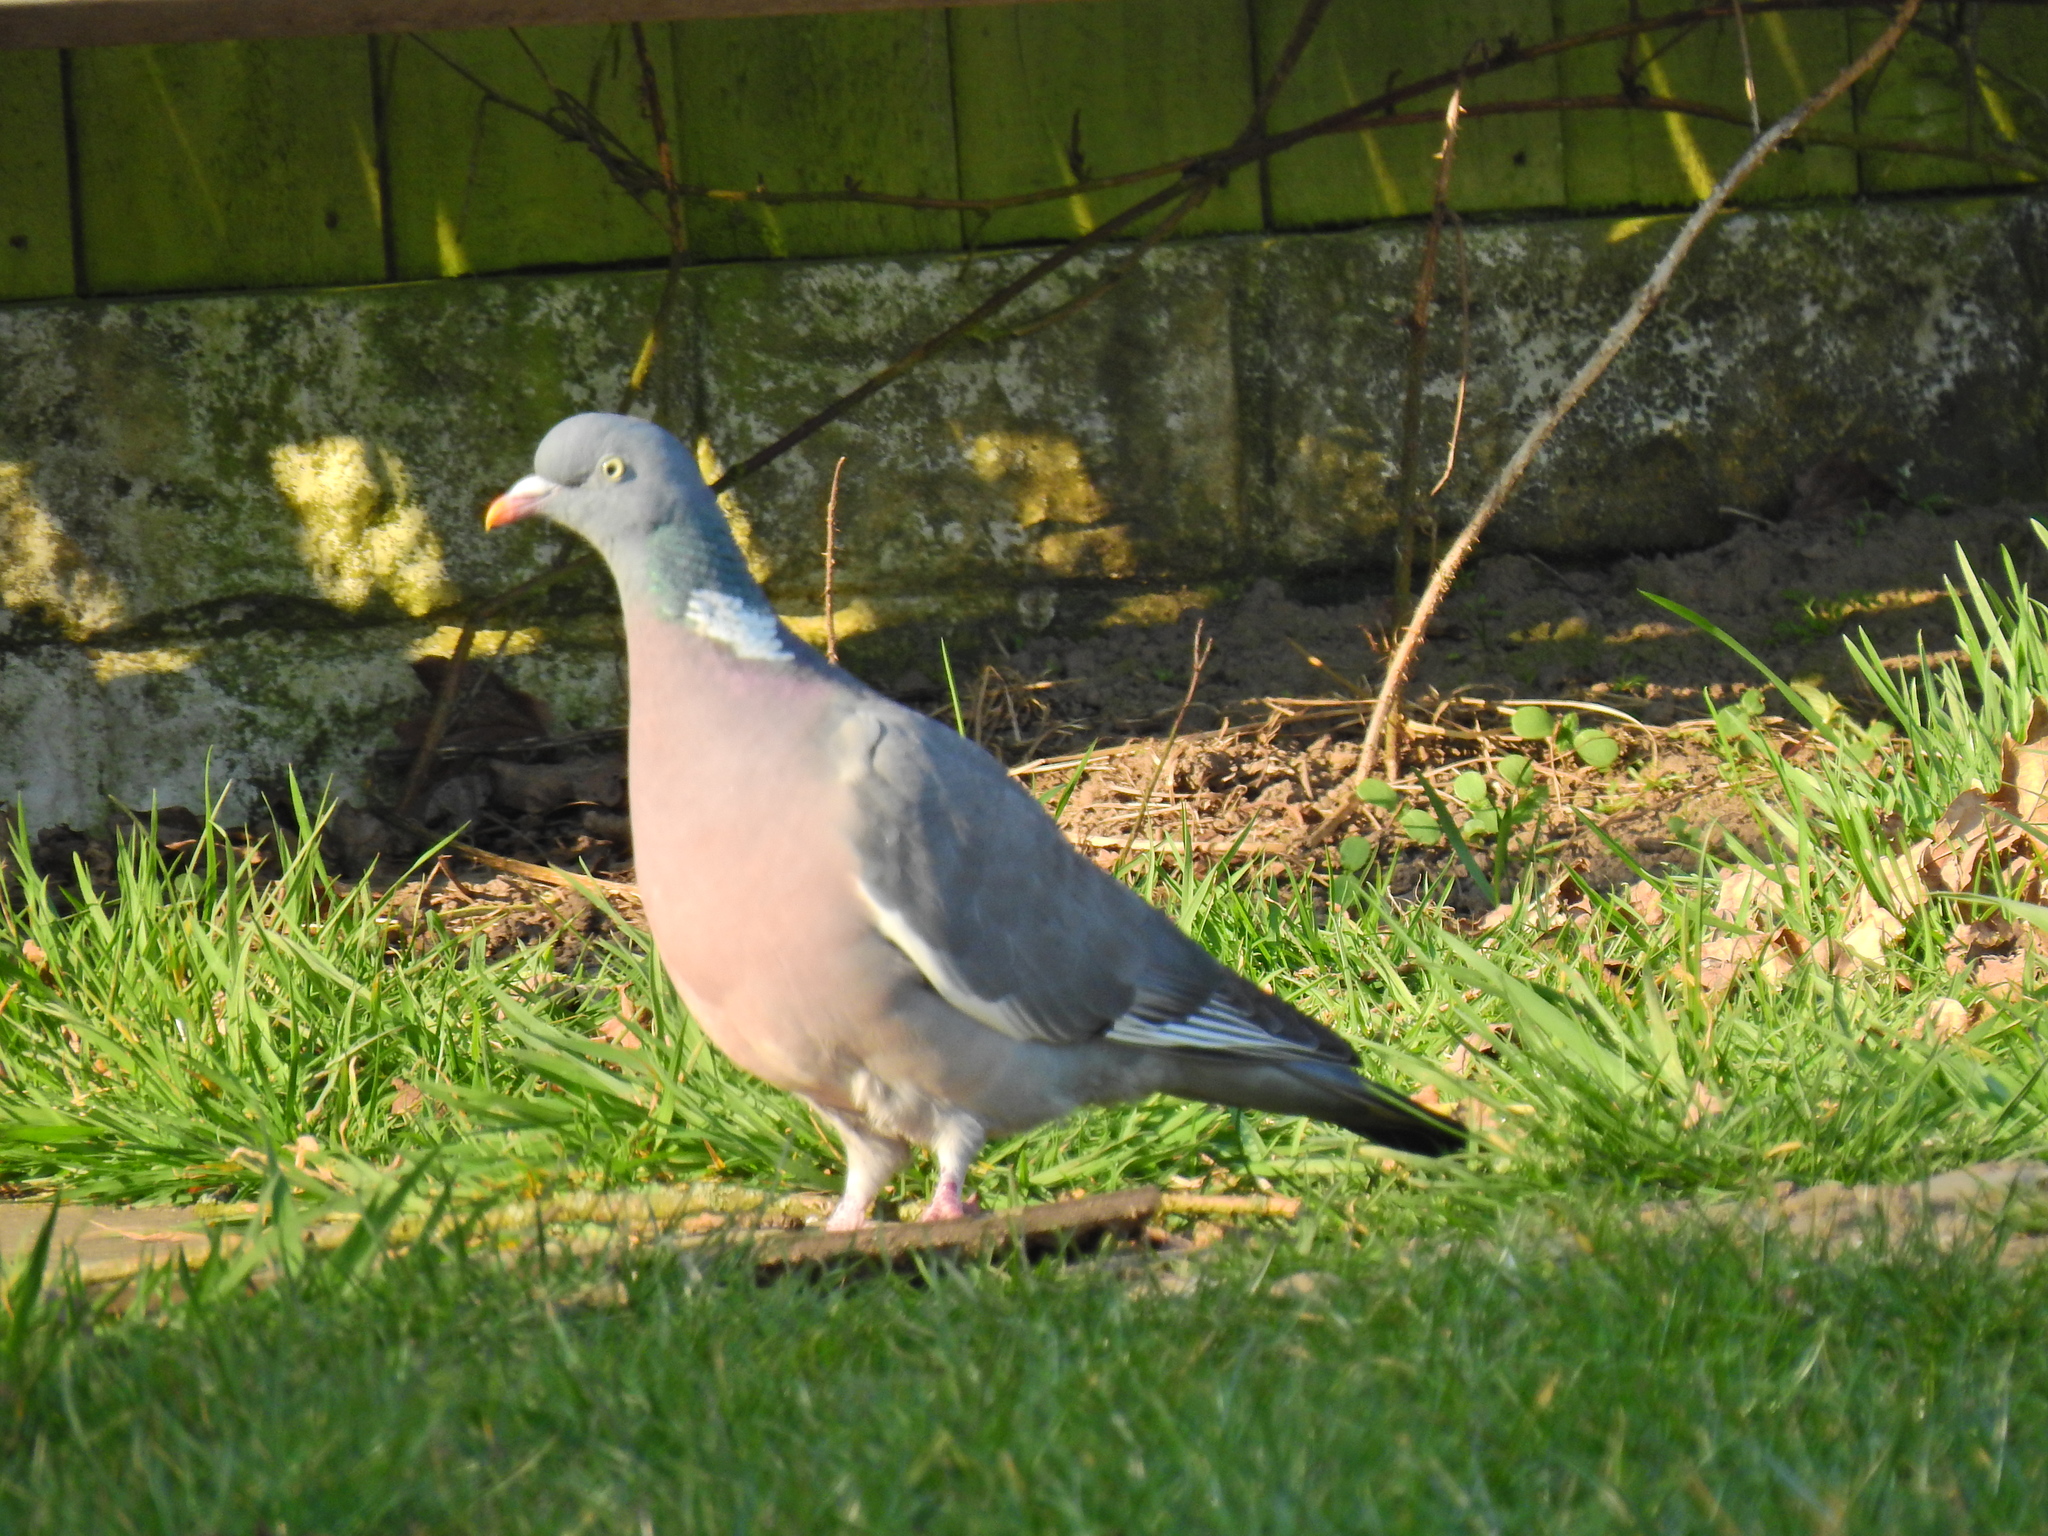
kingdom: Animalia
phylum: Chordata
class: Aves
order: Columbiformes
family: Columbidae
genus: Columba
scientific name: Columba palumbus
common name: Common wood pigeon
